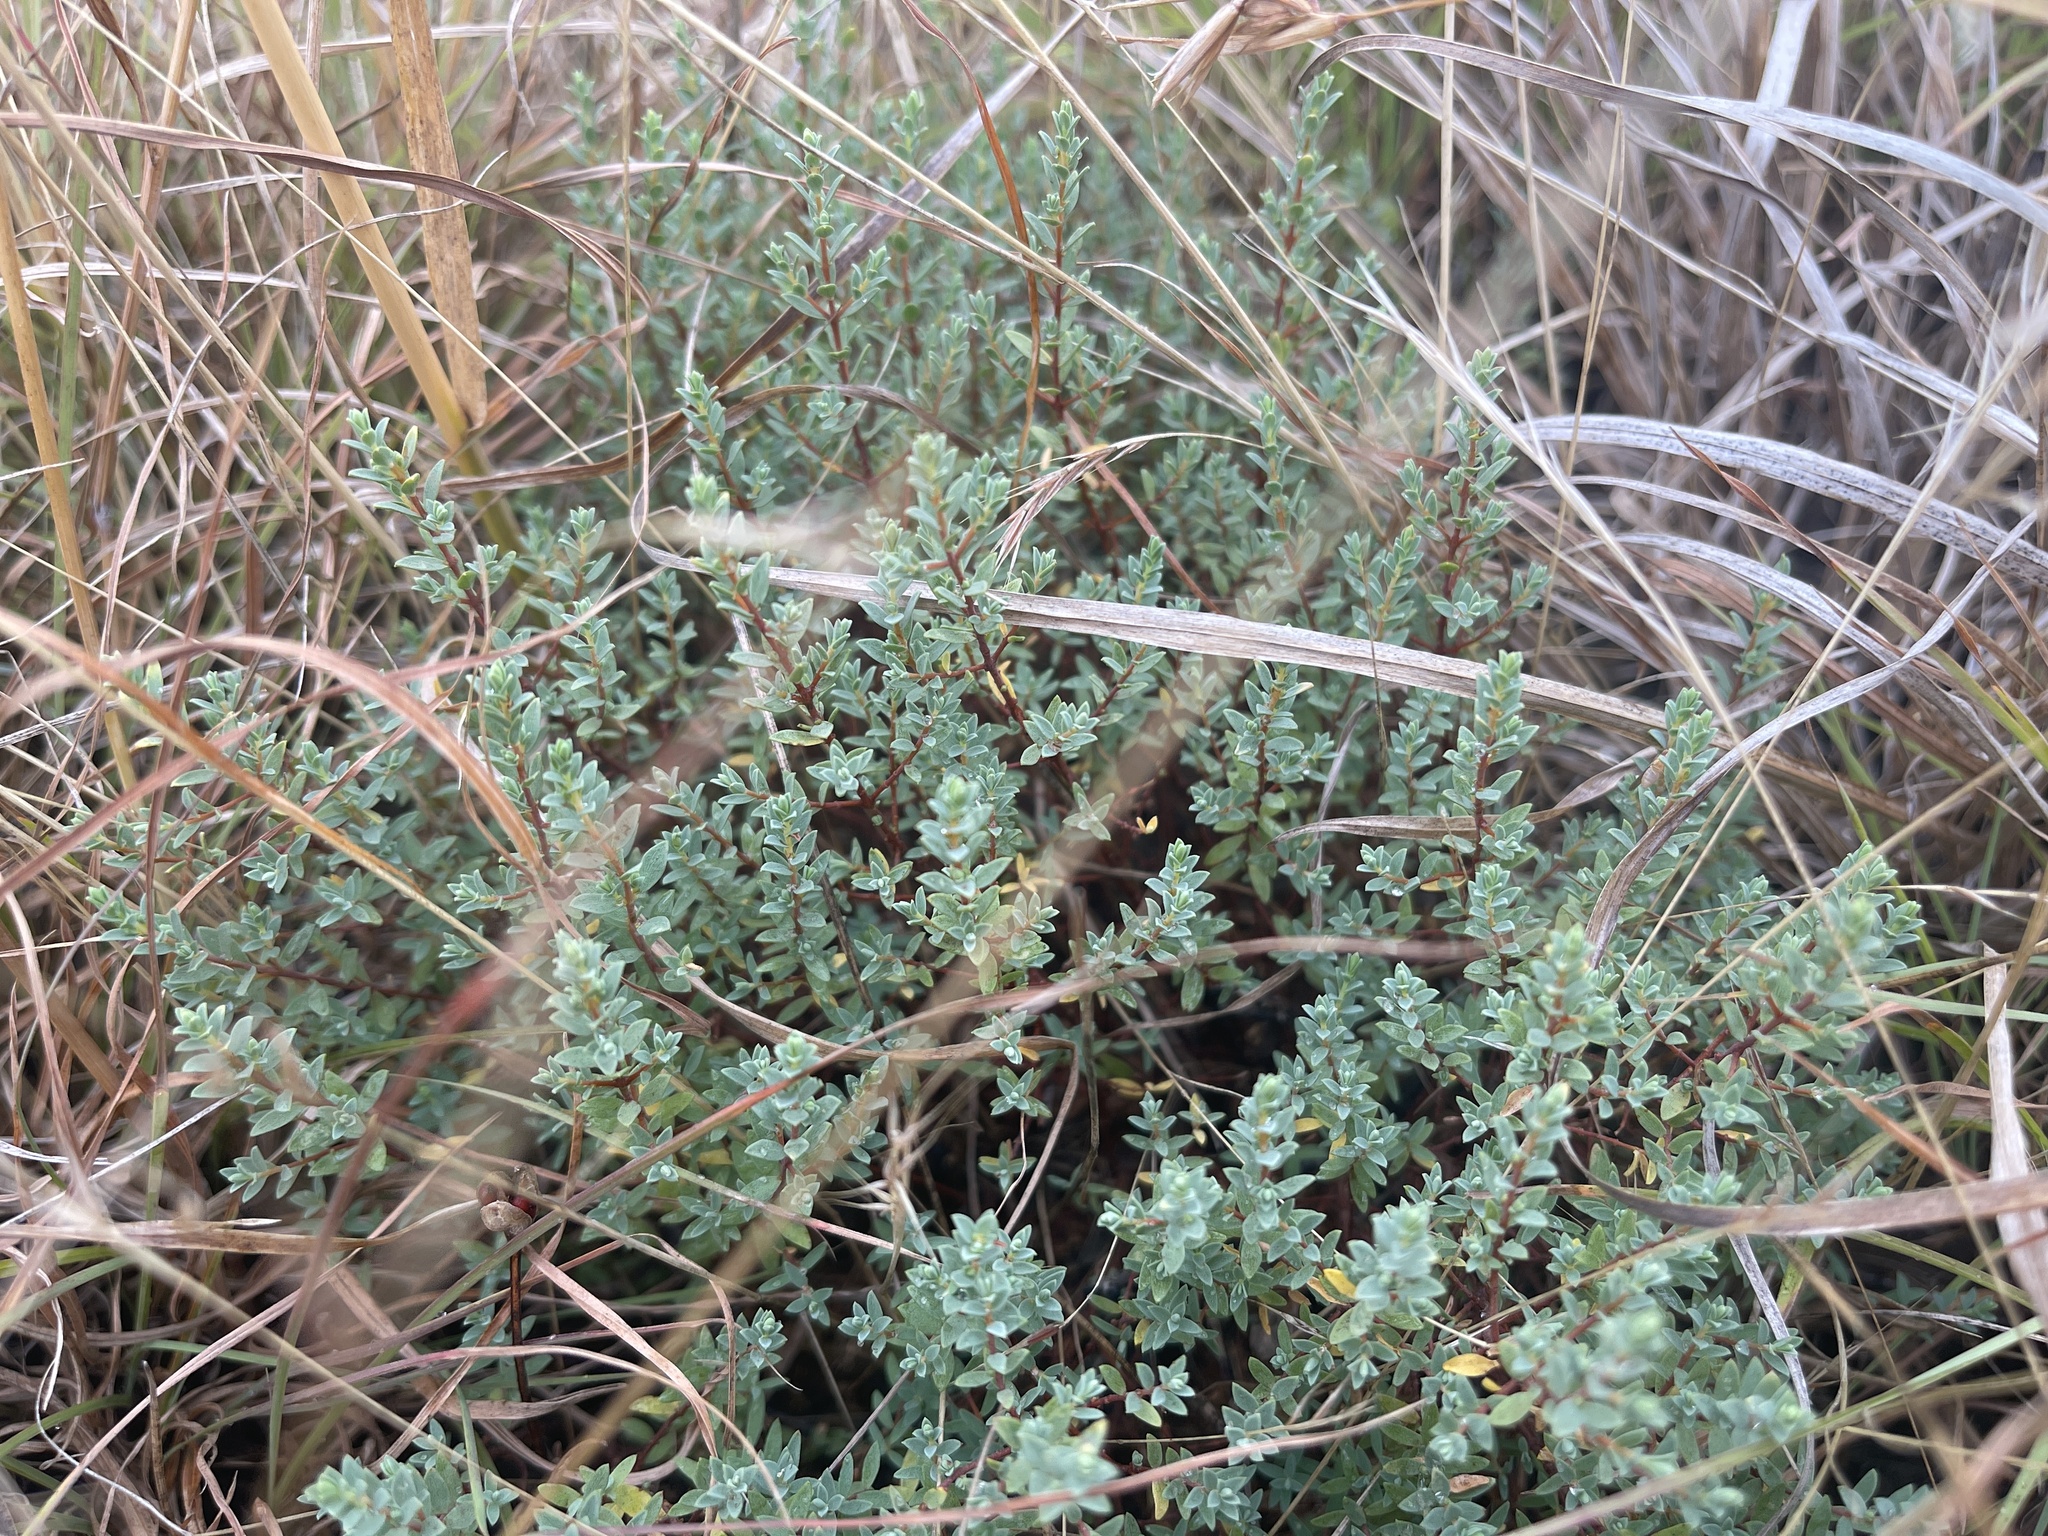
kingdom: Plantae
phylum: Tracheophyta
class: Magnoliopsida
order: Malvales
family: Thymelaeaceae
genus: Pimelea
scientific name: Pimelea spinescens
